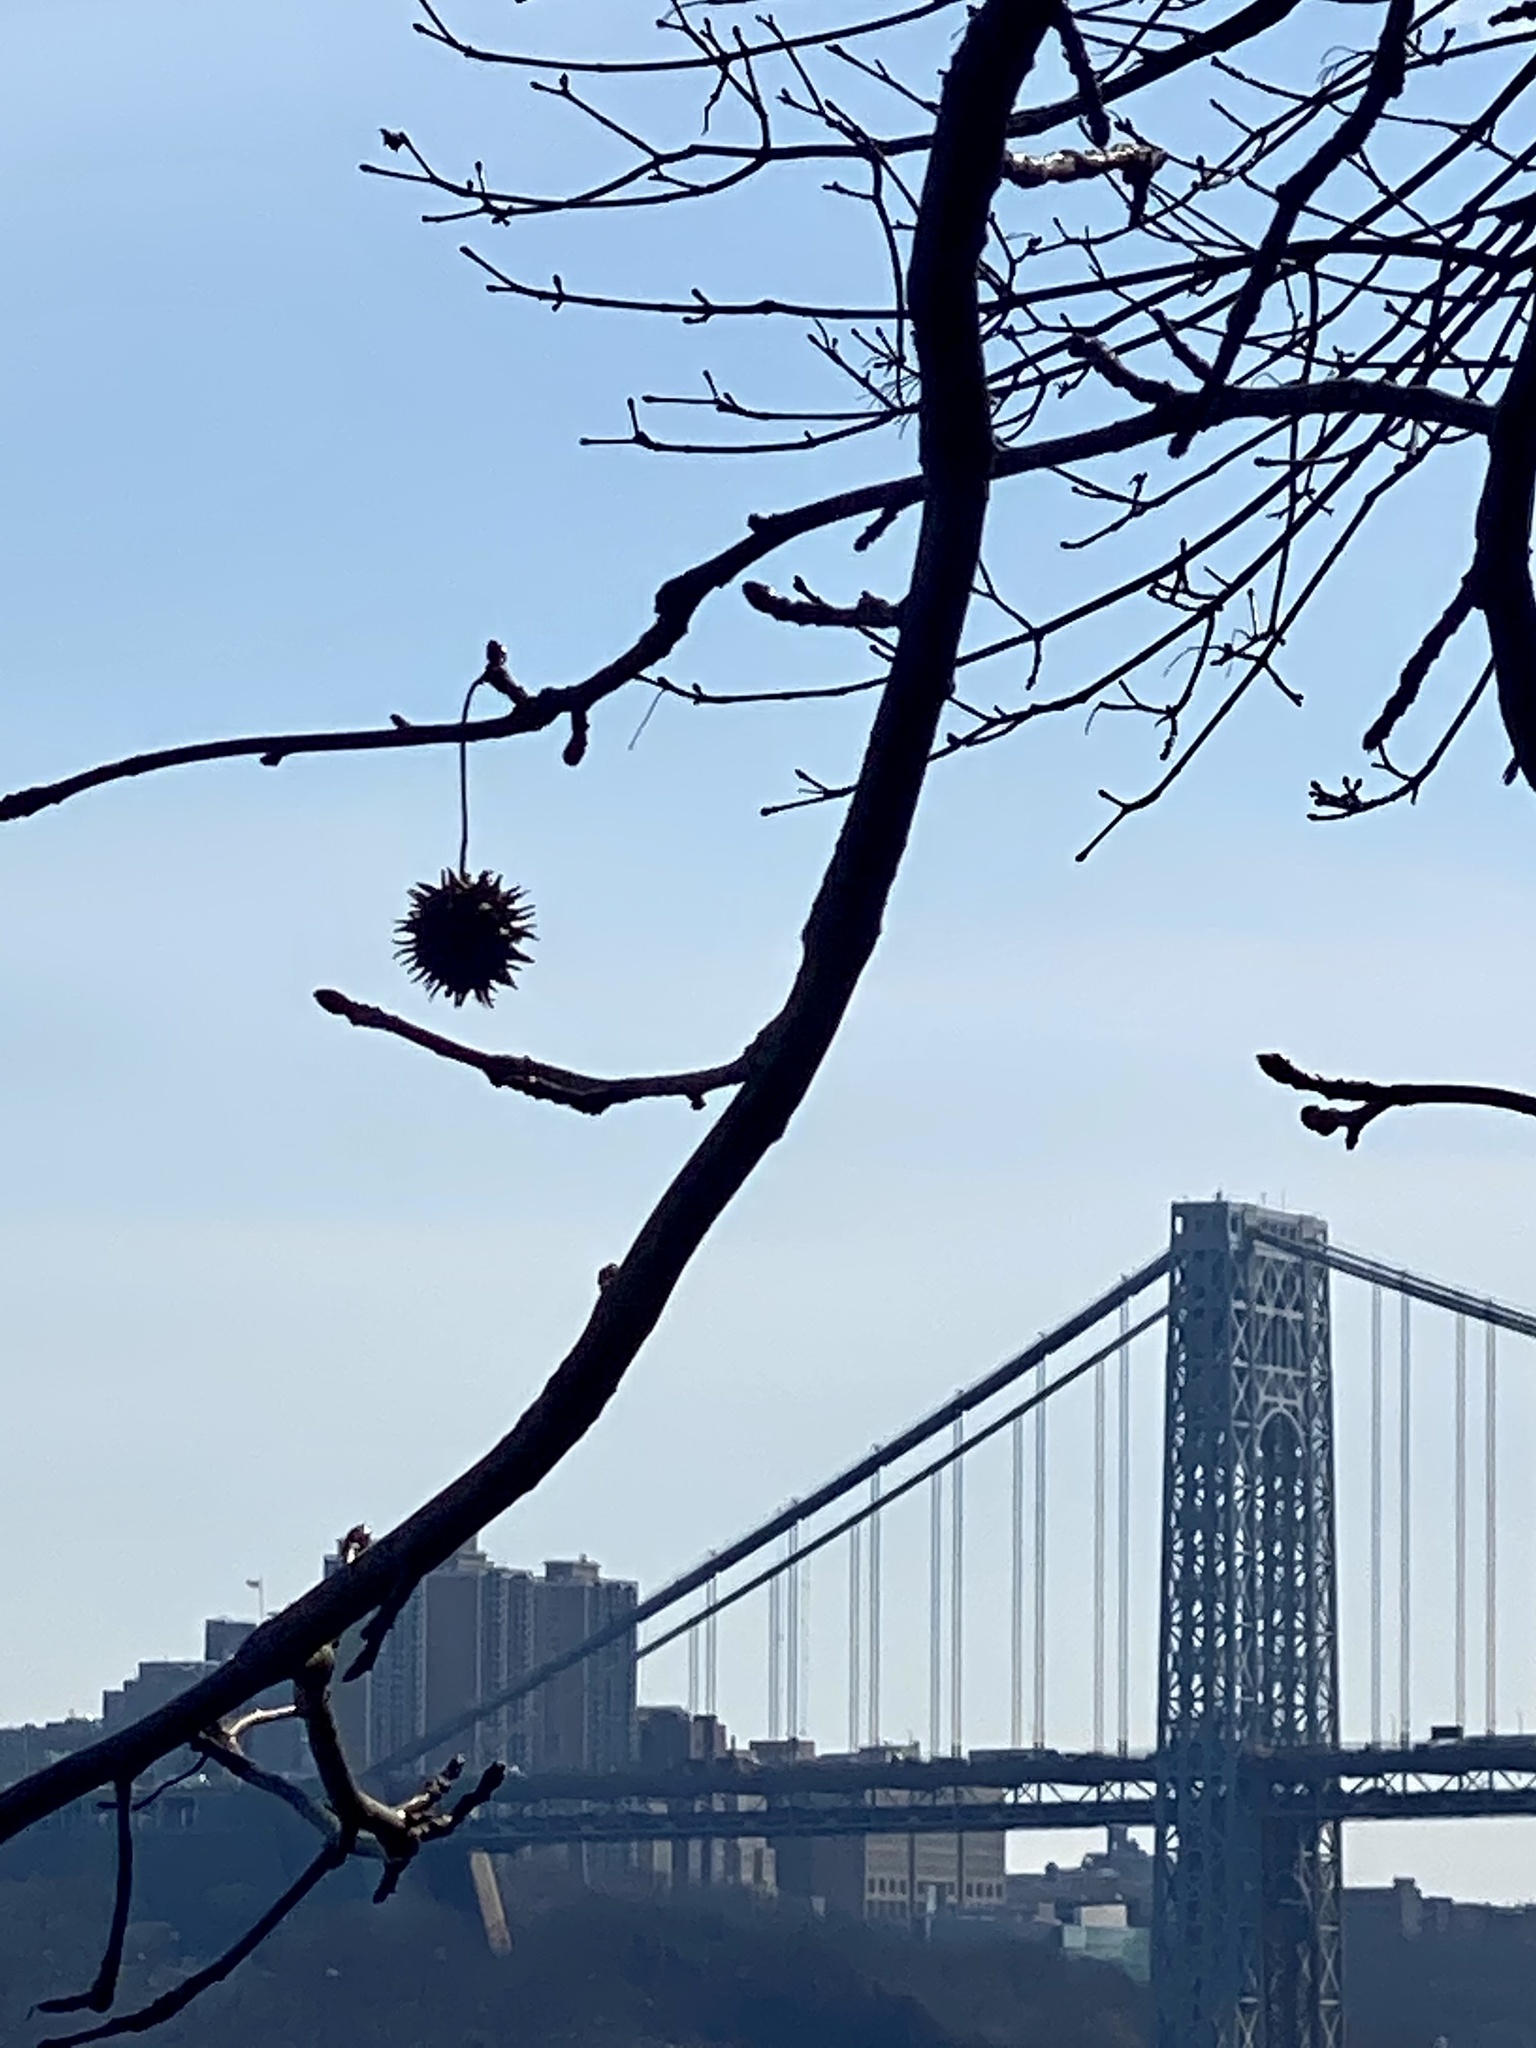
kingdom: Plantae
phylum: Tracheophyta
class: Magnoliopsida
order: Saxifragales
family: Altingiaceae
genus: Liquidambar
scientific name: Liquidambar styraciflua
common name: Sweet gum
